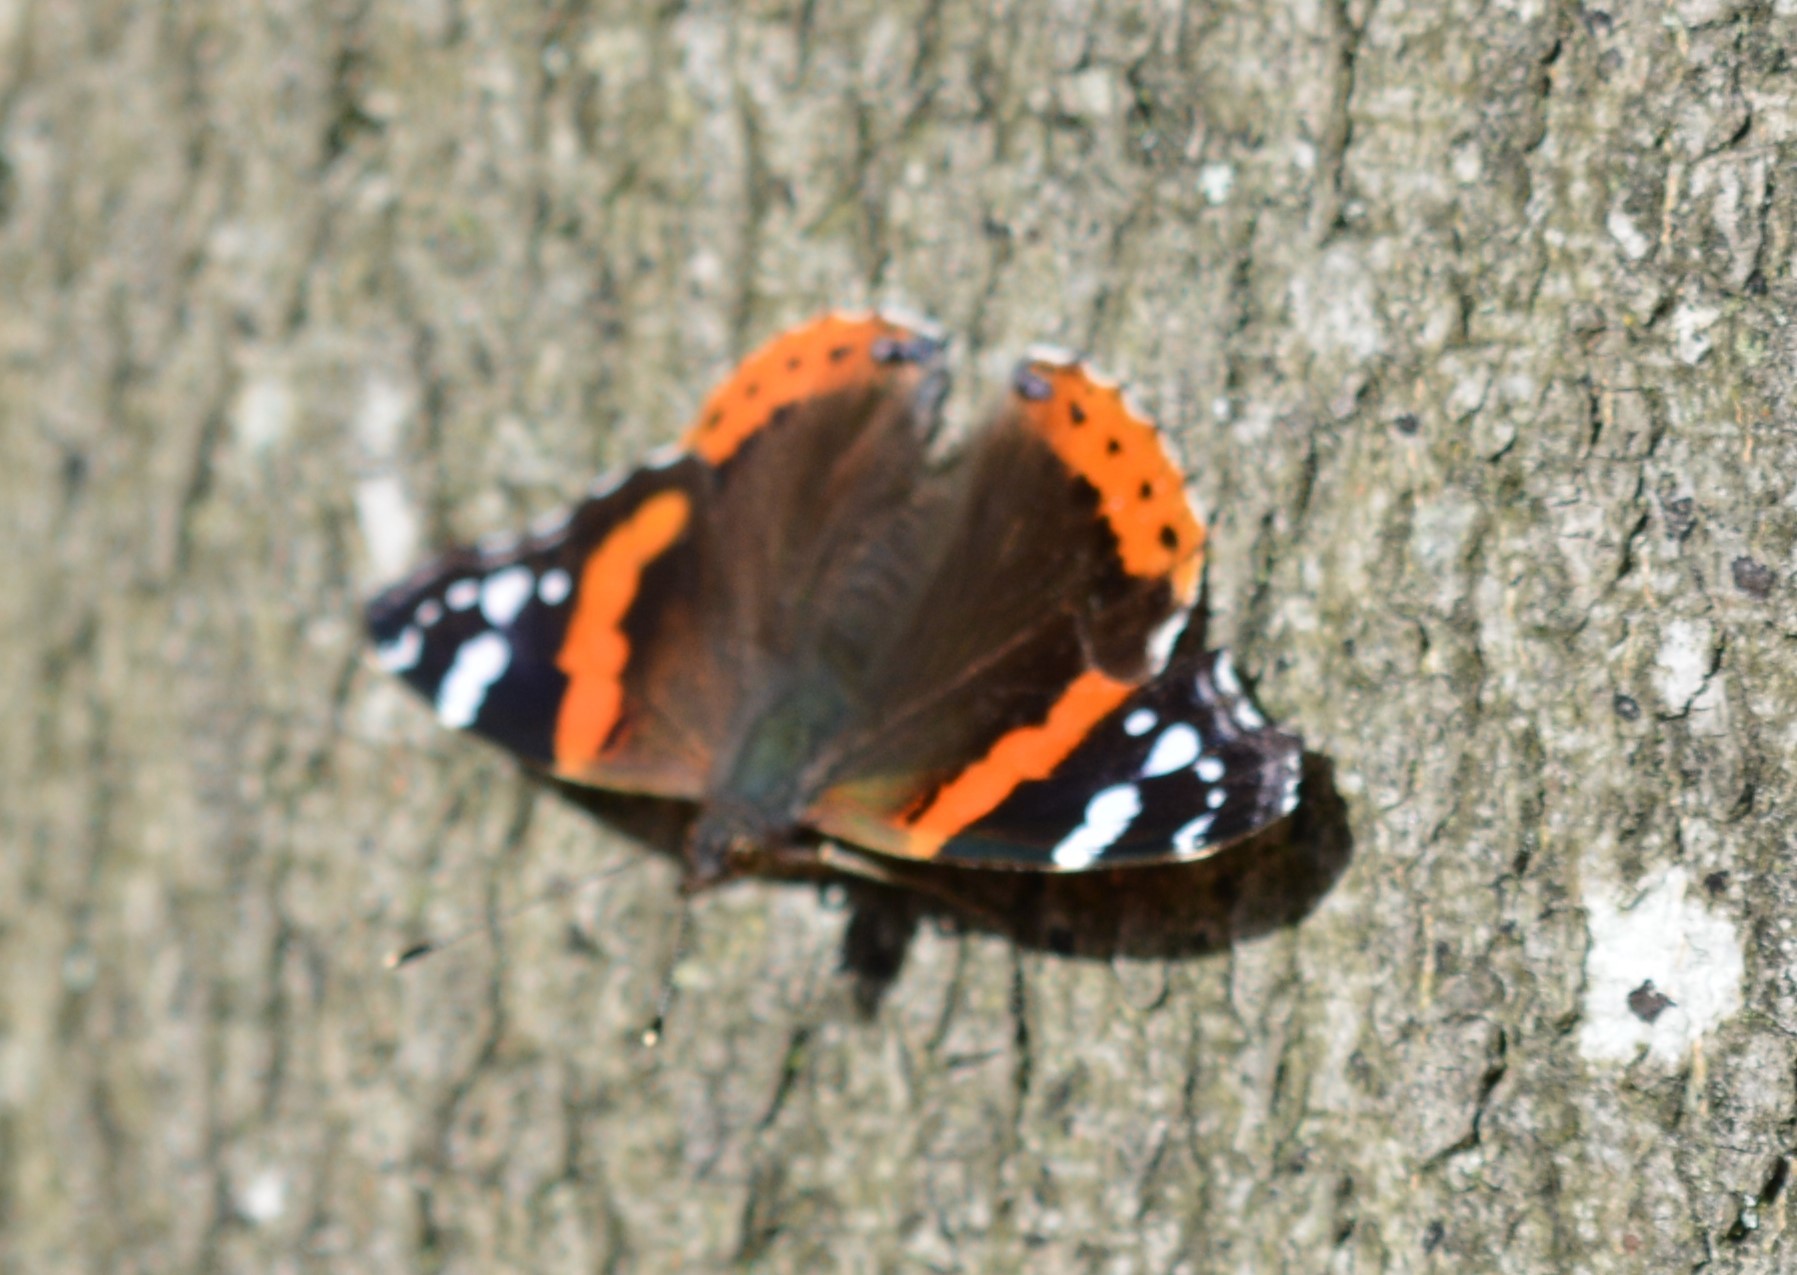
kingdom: Animalia
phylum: Arthropoda
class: Insecta
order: Lepidoptera
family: Nymphalidae
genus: Vanessa
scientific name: Vanessa atalanta
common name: Red admiral
